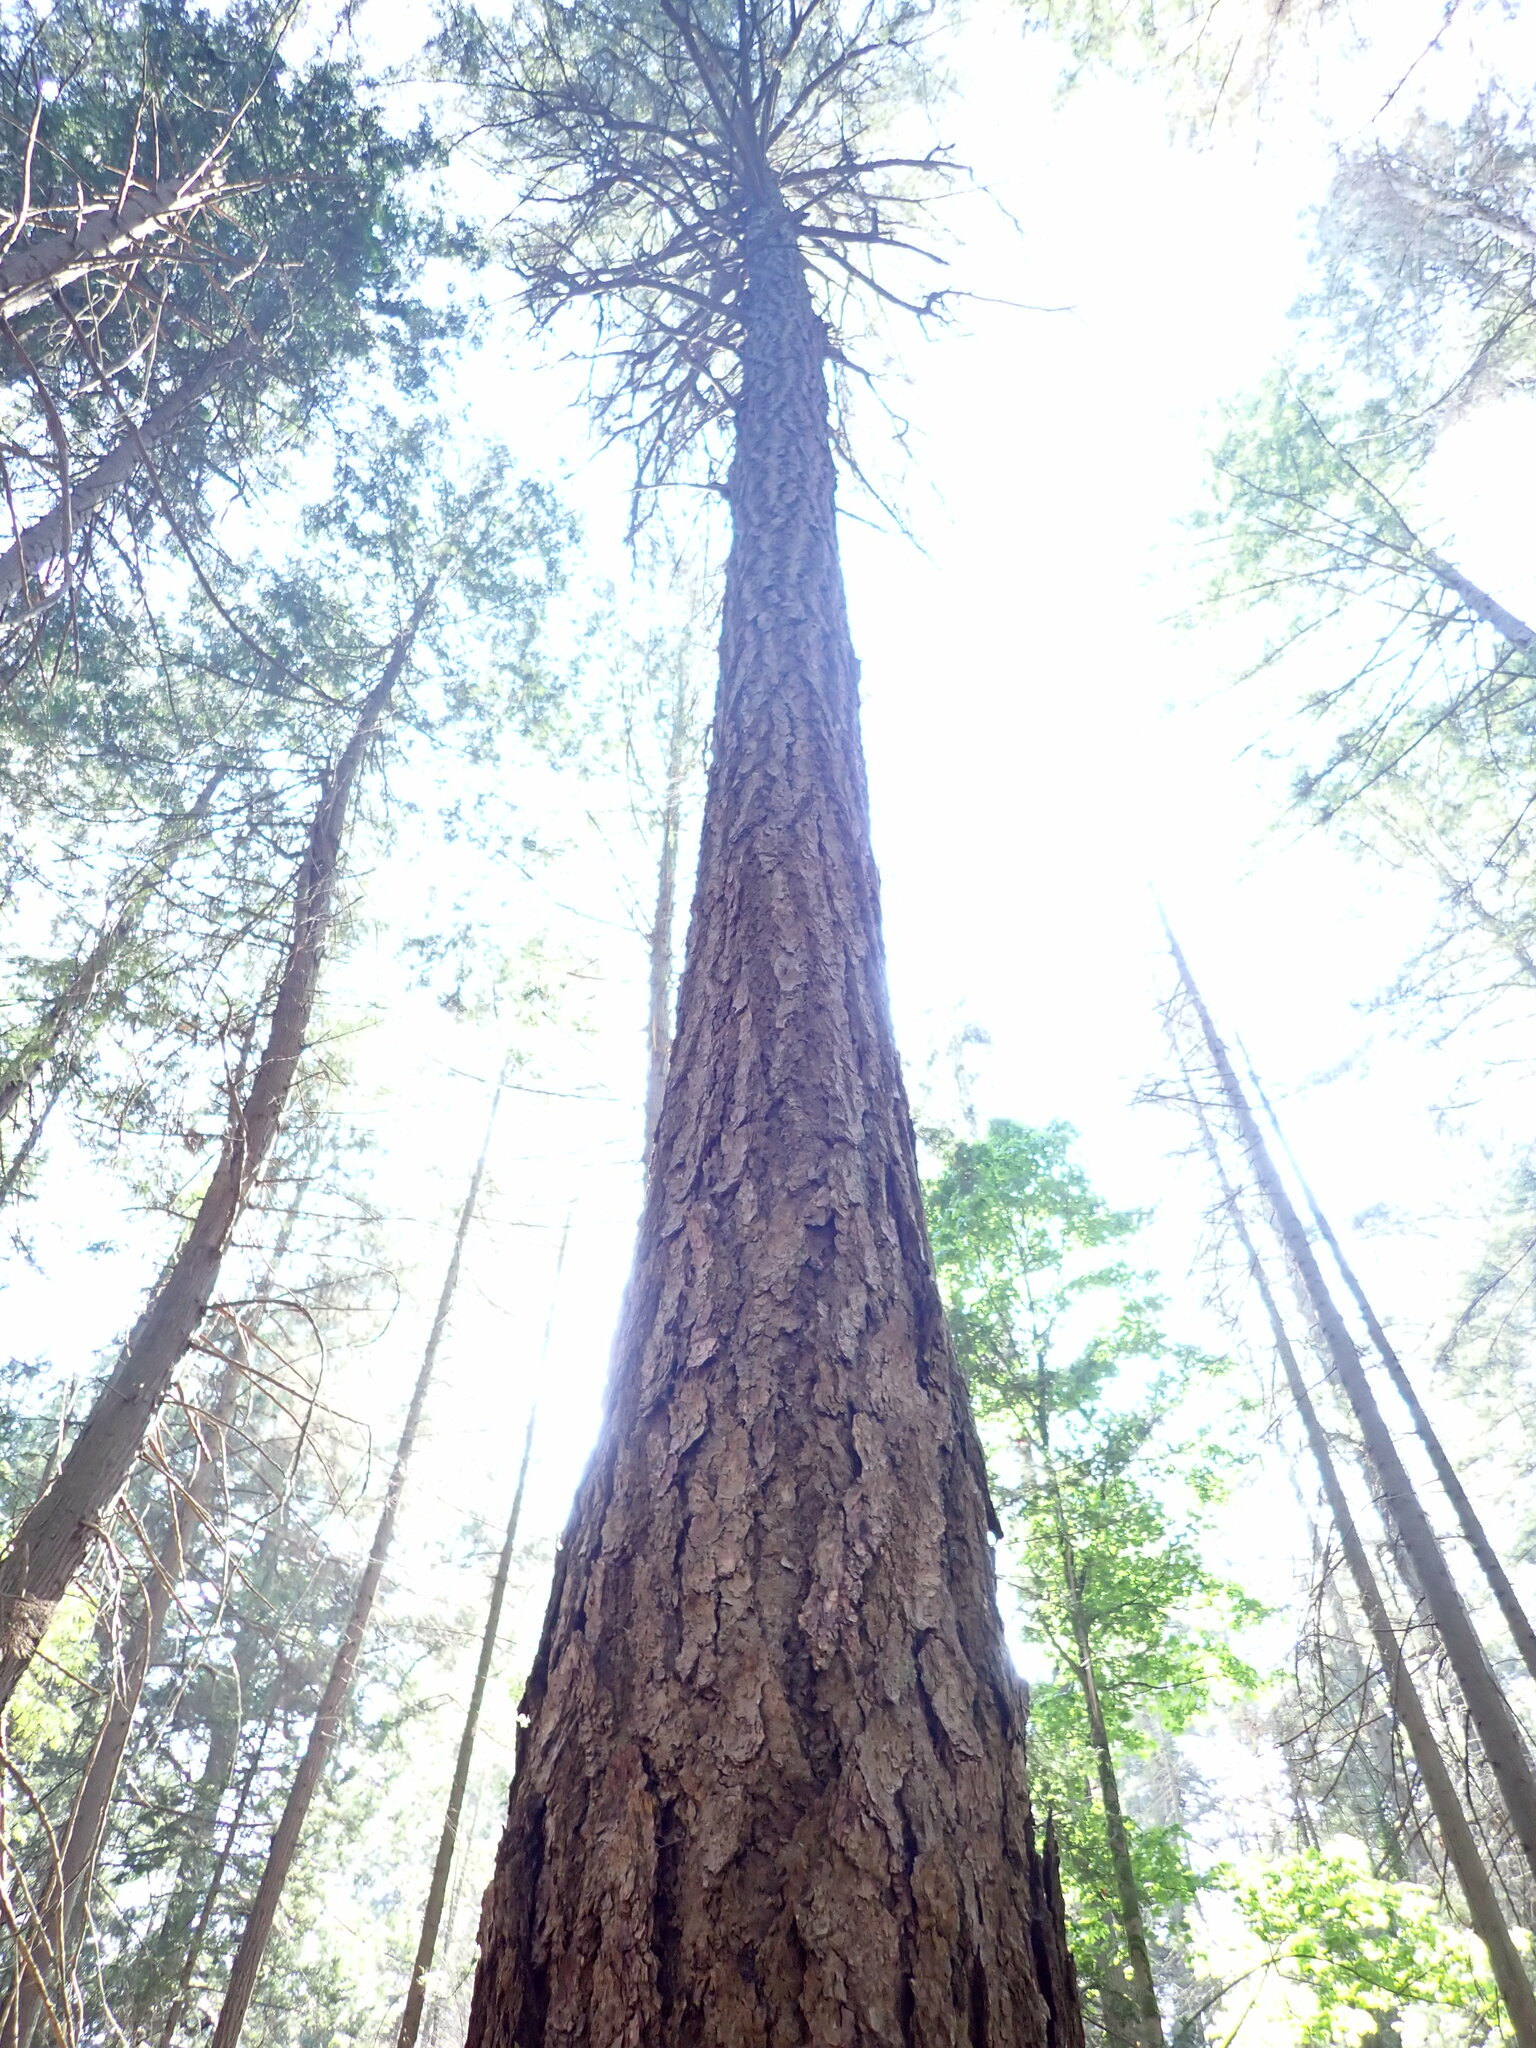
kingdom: Plantae
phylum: Tracheophyta
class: Pinopsida
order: Pinales
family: Pinaceae
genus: Pseudotsuga
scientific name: Pseudotsuga menziesii
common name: Douglas fir
